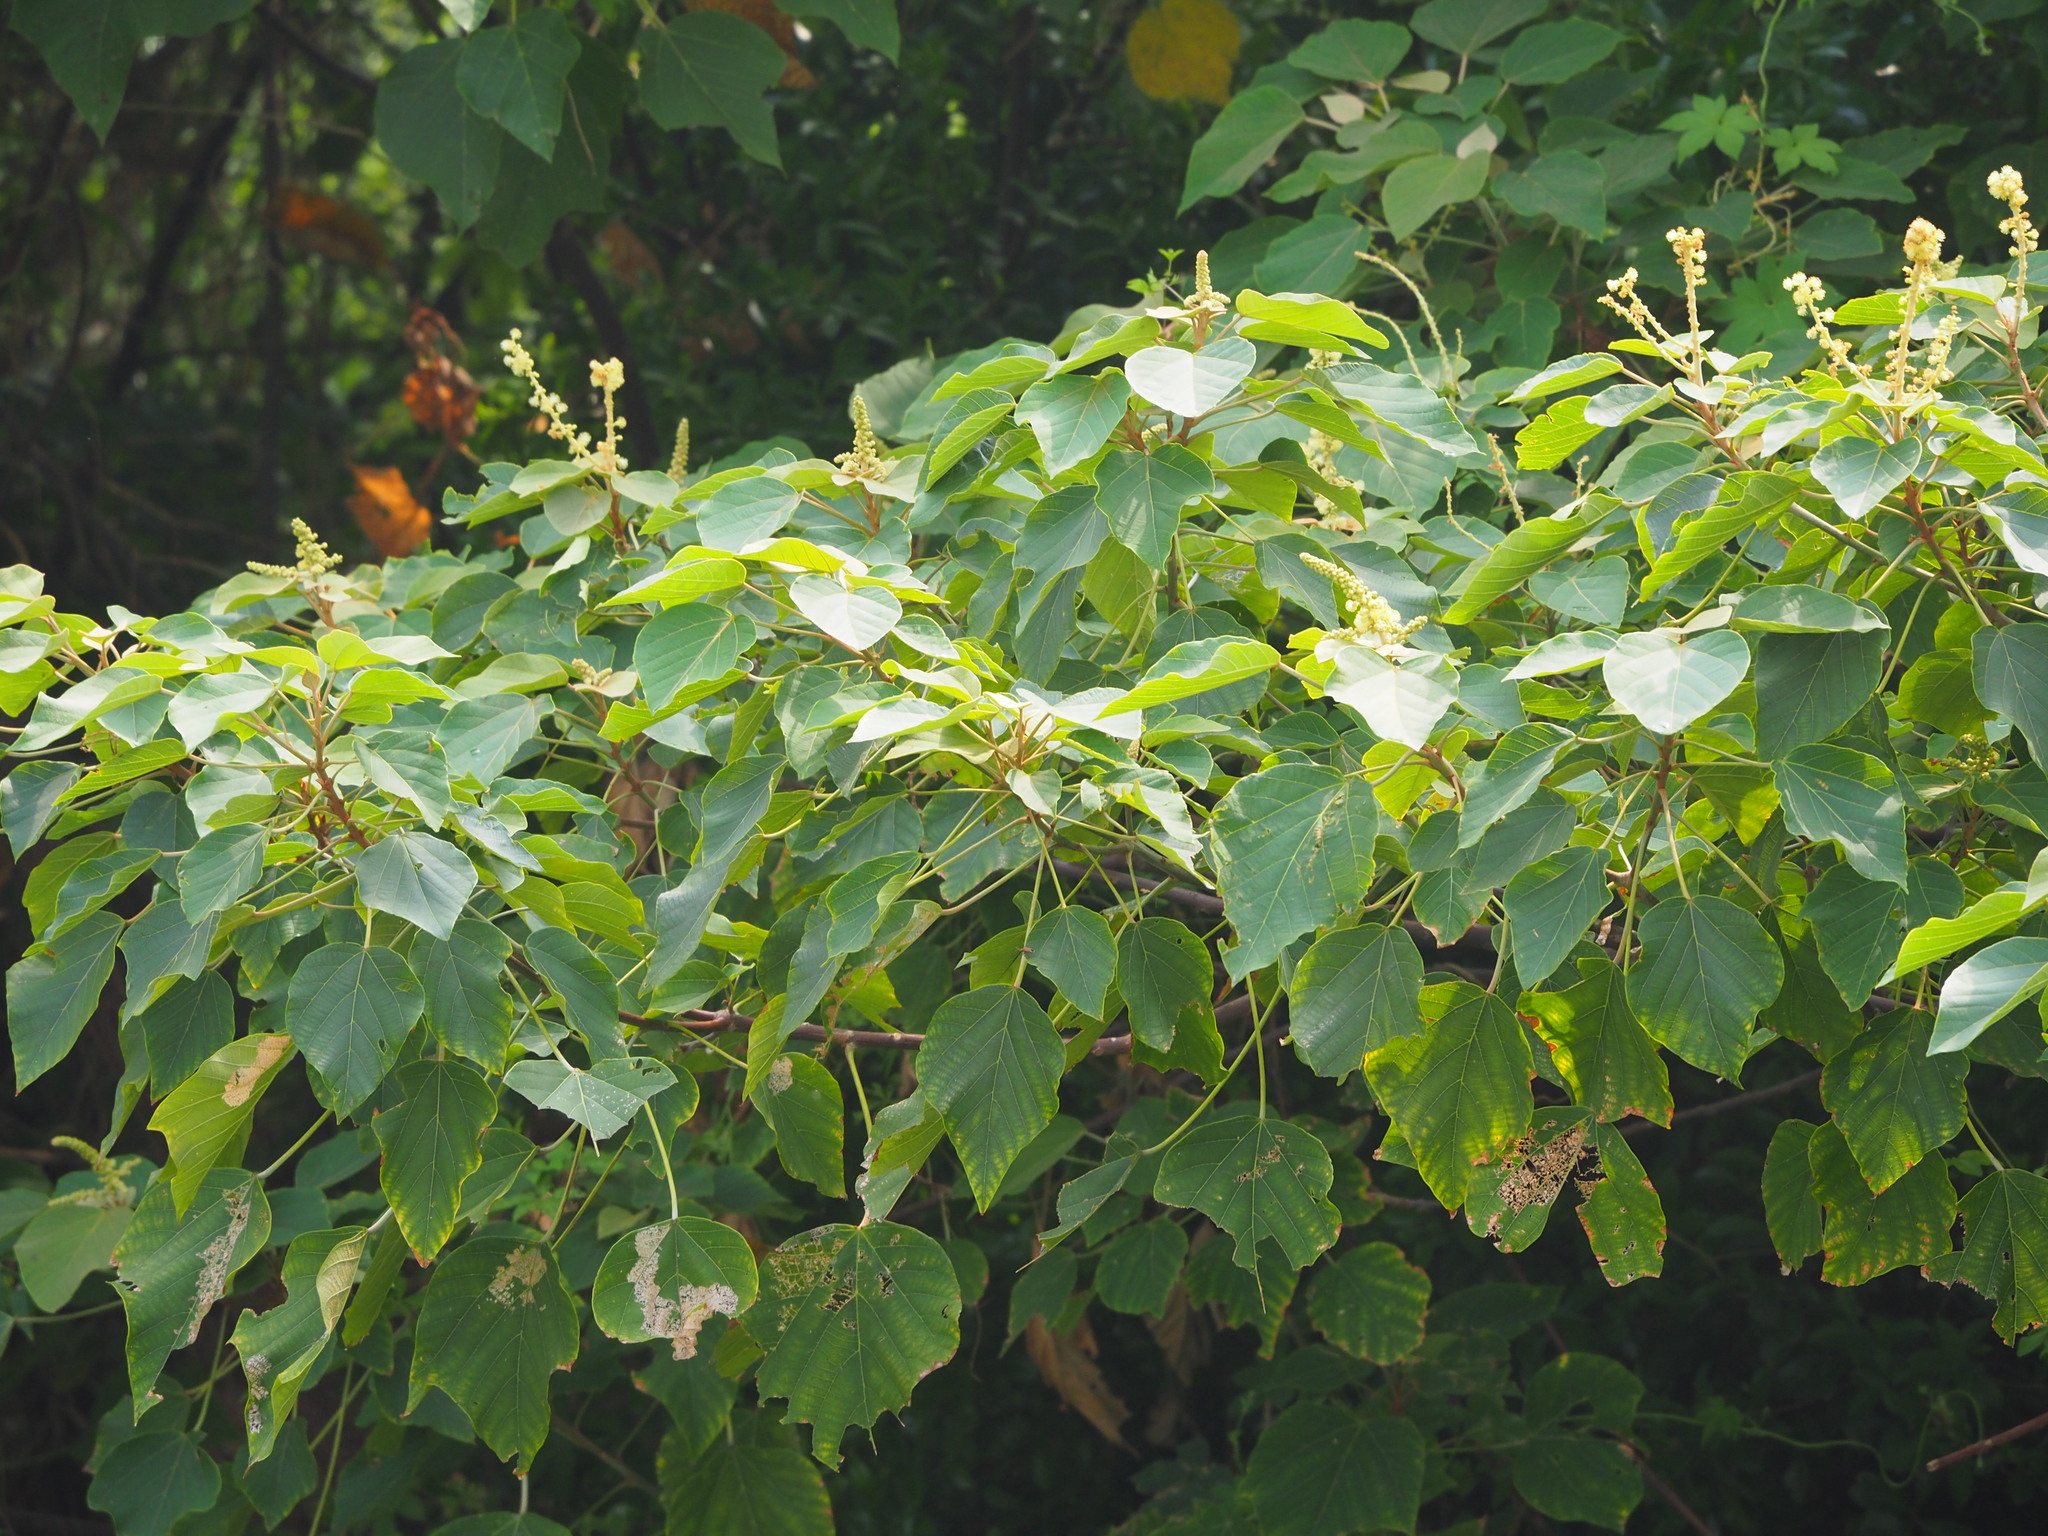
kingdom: Plantae
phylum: Tracheophyta
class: Magnoliopsida
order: Malpighiales
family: Euphorbiaceae
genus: Mallotus
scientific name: Mallotus japonicus
